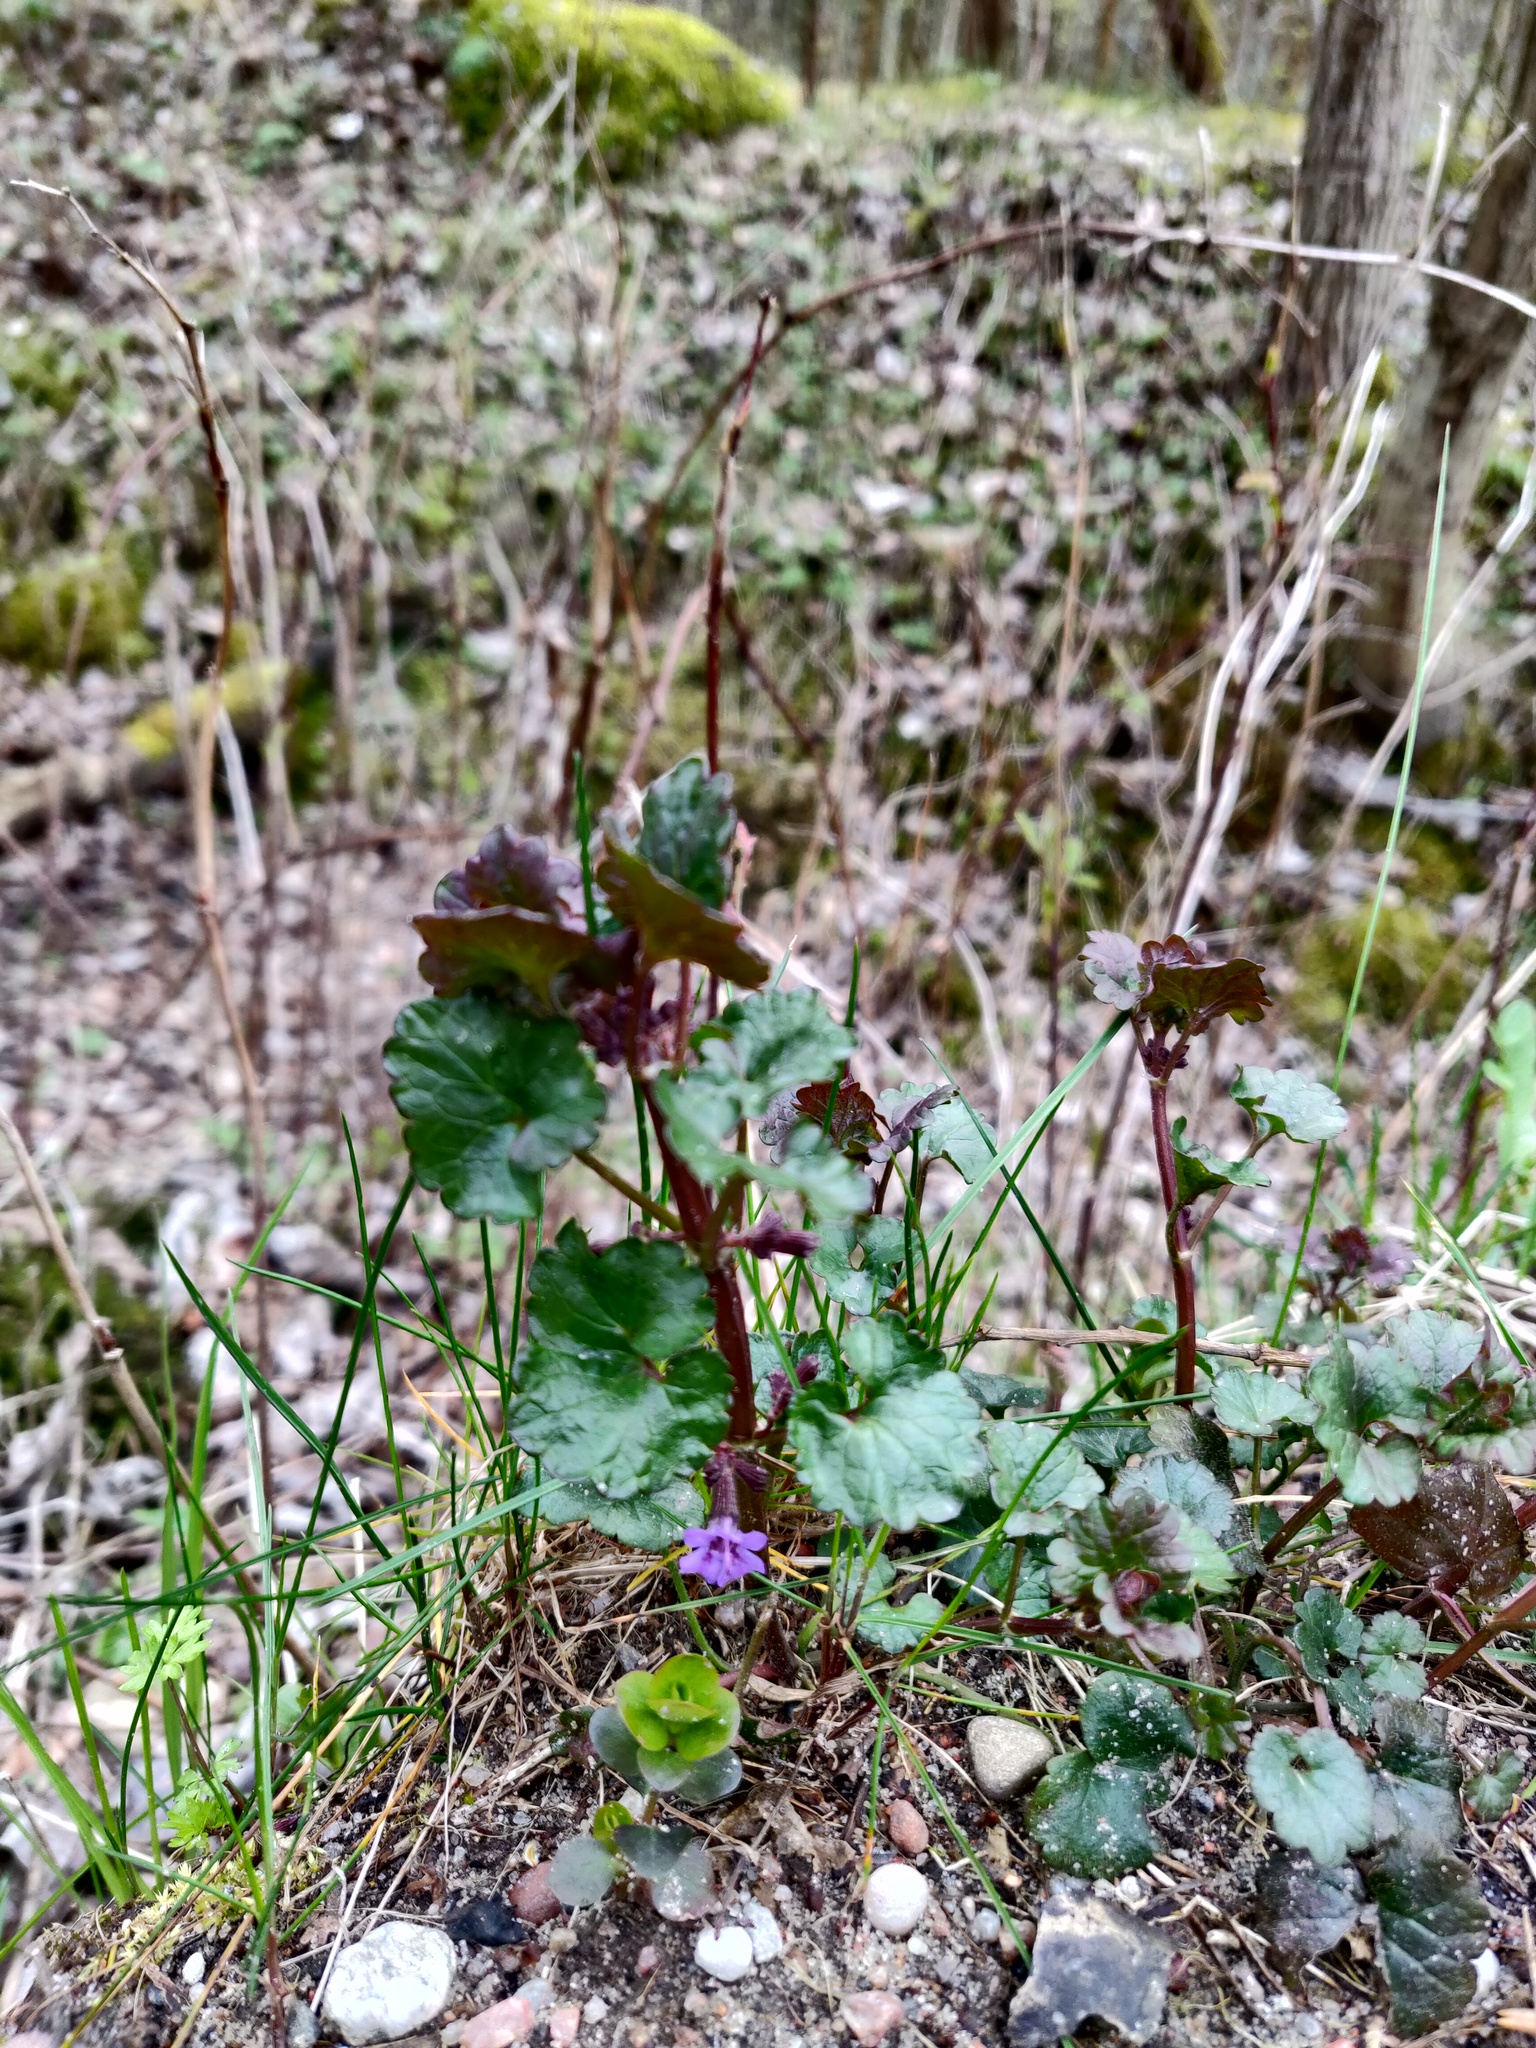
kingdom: Plantae
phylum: Tracheophyta
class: Magnoliopsida
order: Lamiales
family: Lamiaceae
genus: Glechoma
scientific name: Glechoma hederacea
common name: Ground ivy
